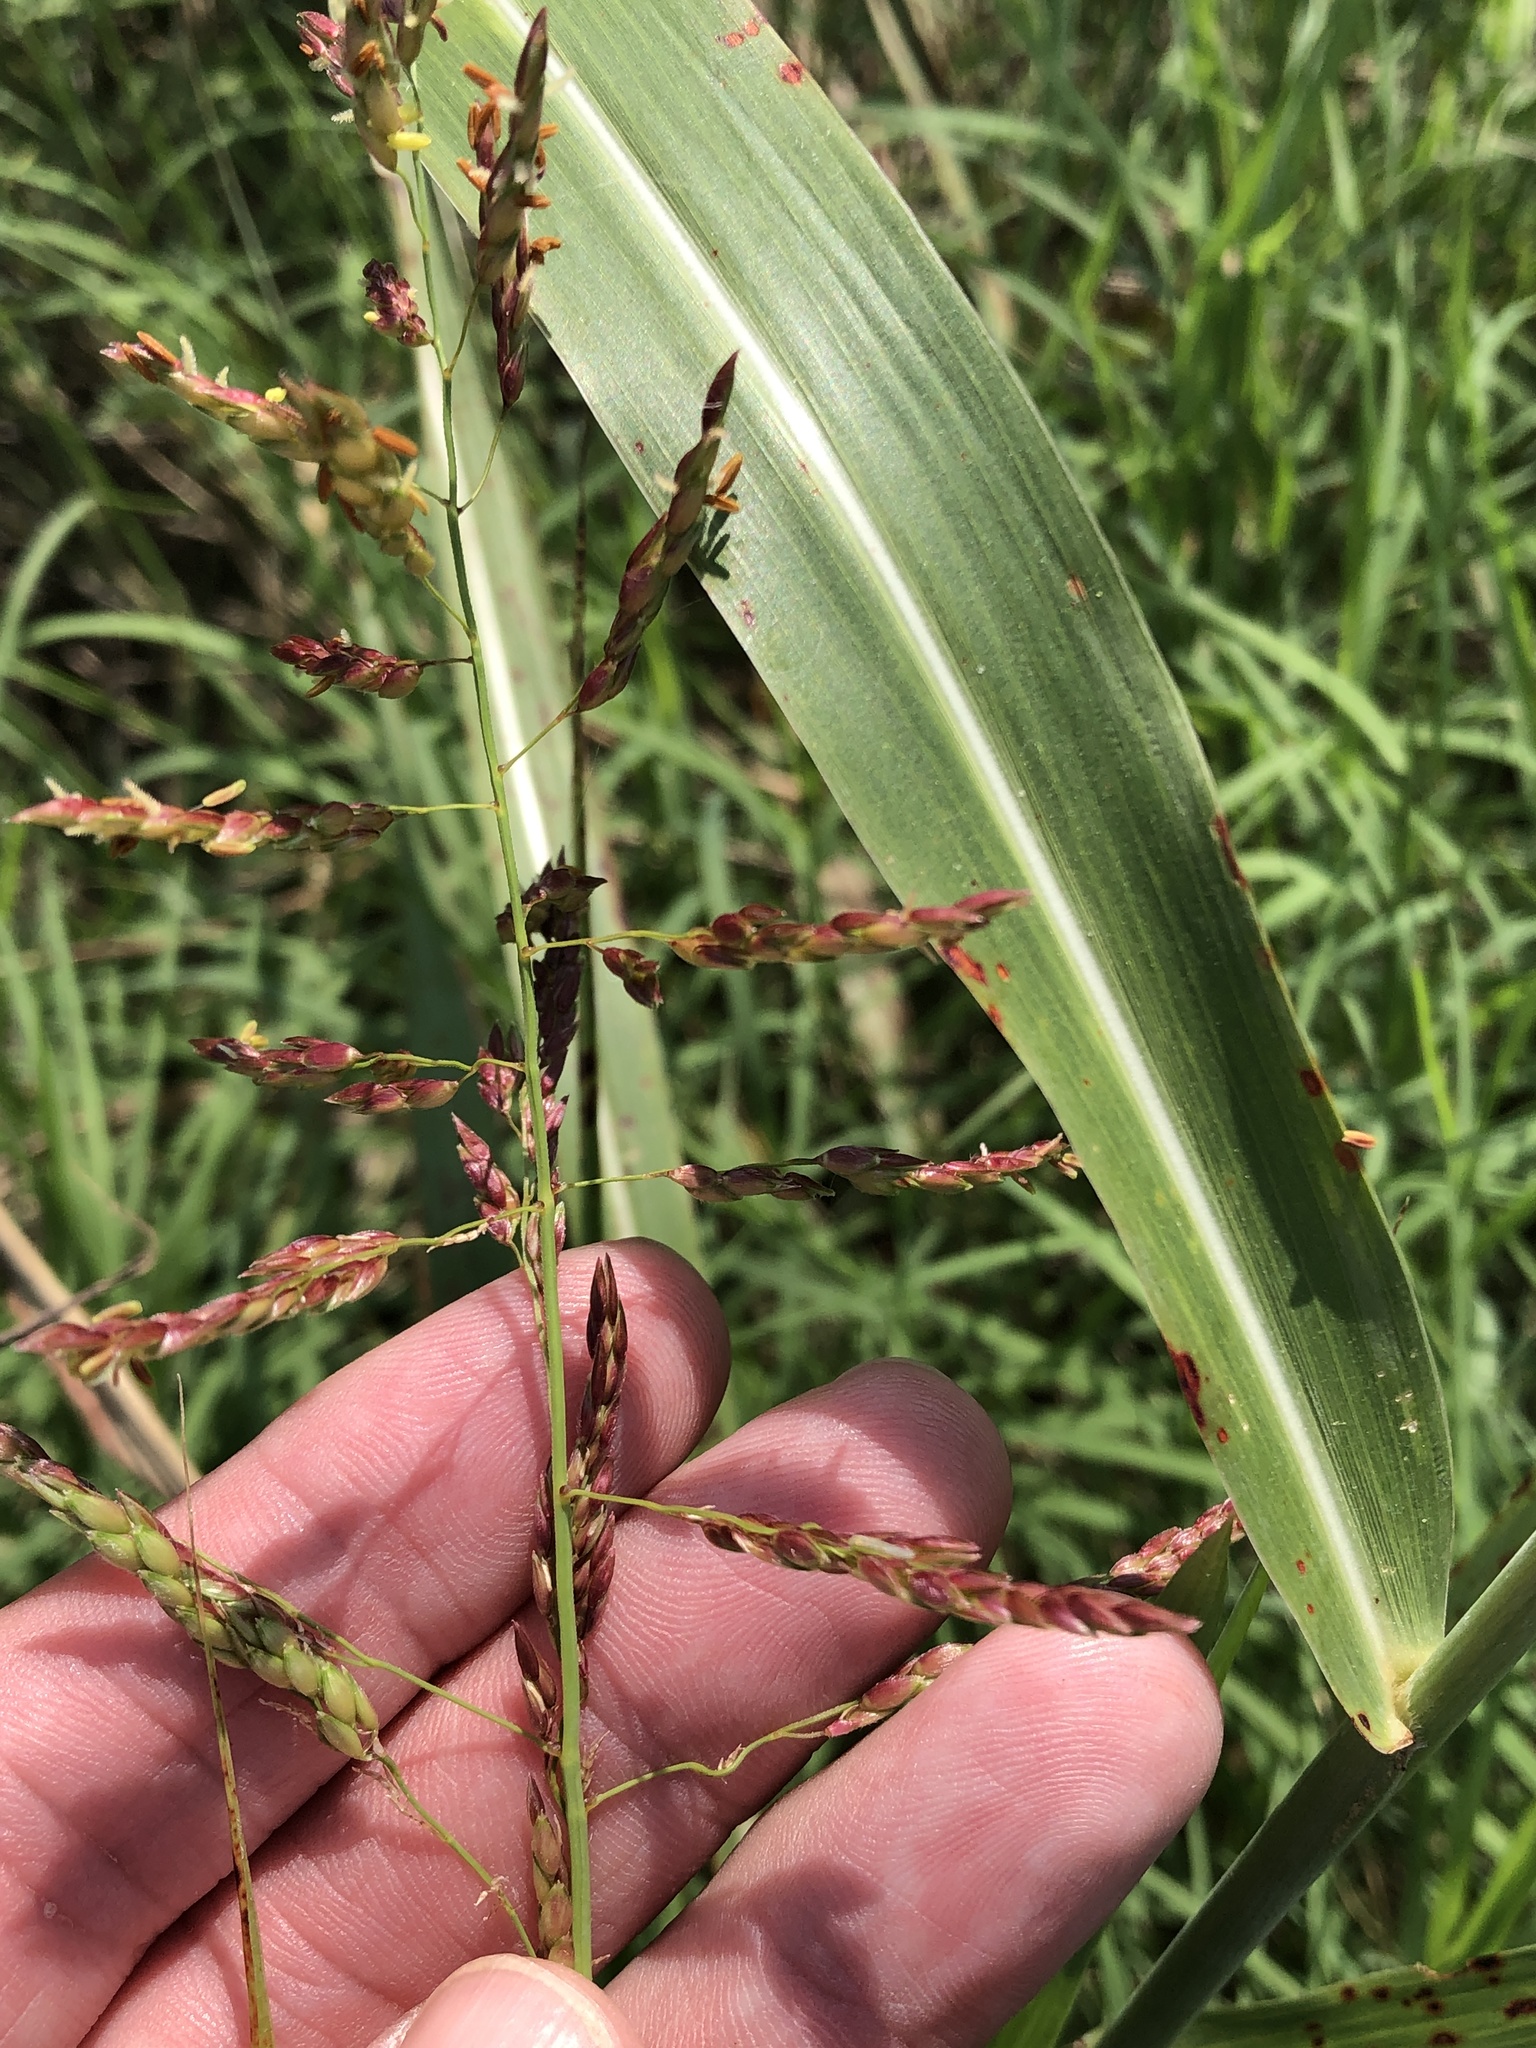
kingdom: Plantae
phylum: Tracheophyta
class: Liliopsida
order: Poales
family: Poaceae
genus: Sorghum
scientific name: Sorghum halepense
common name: Johnson-grass
